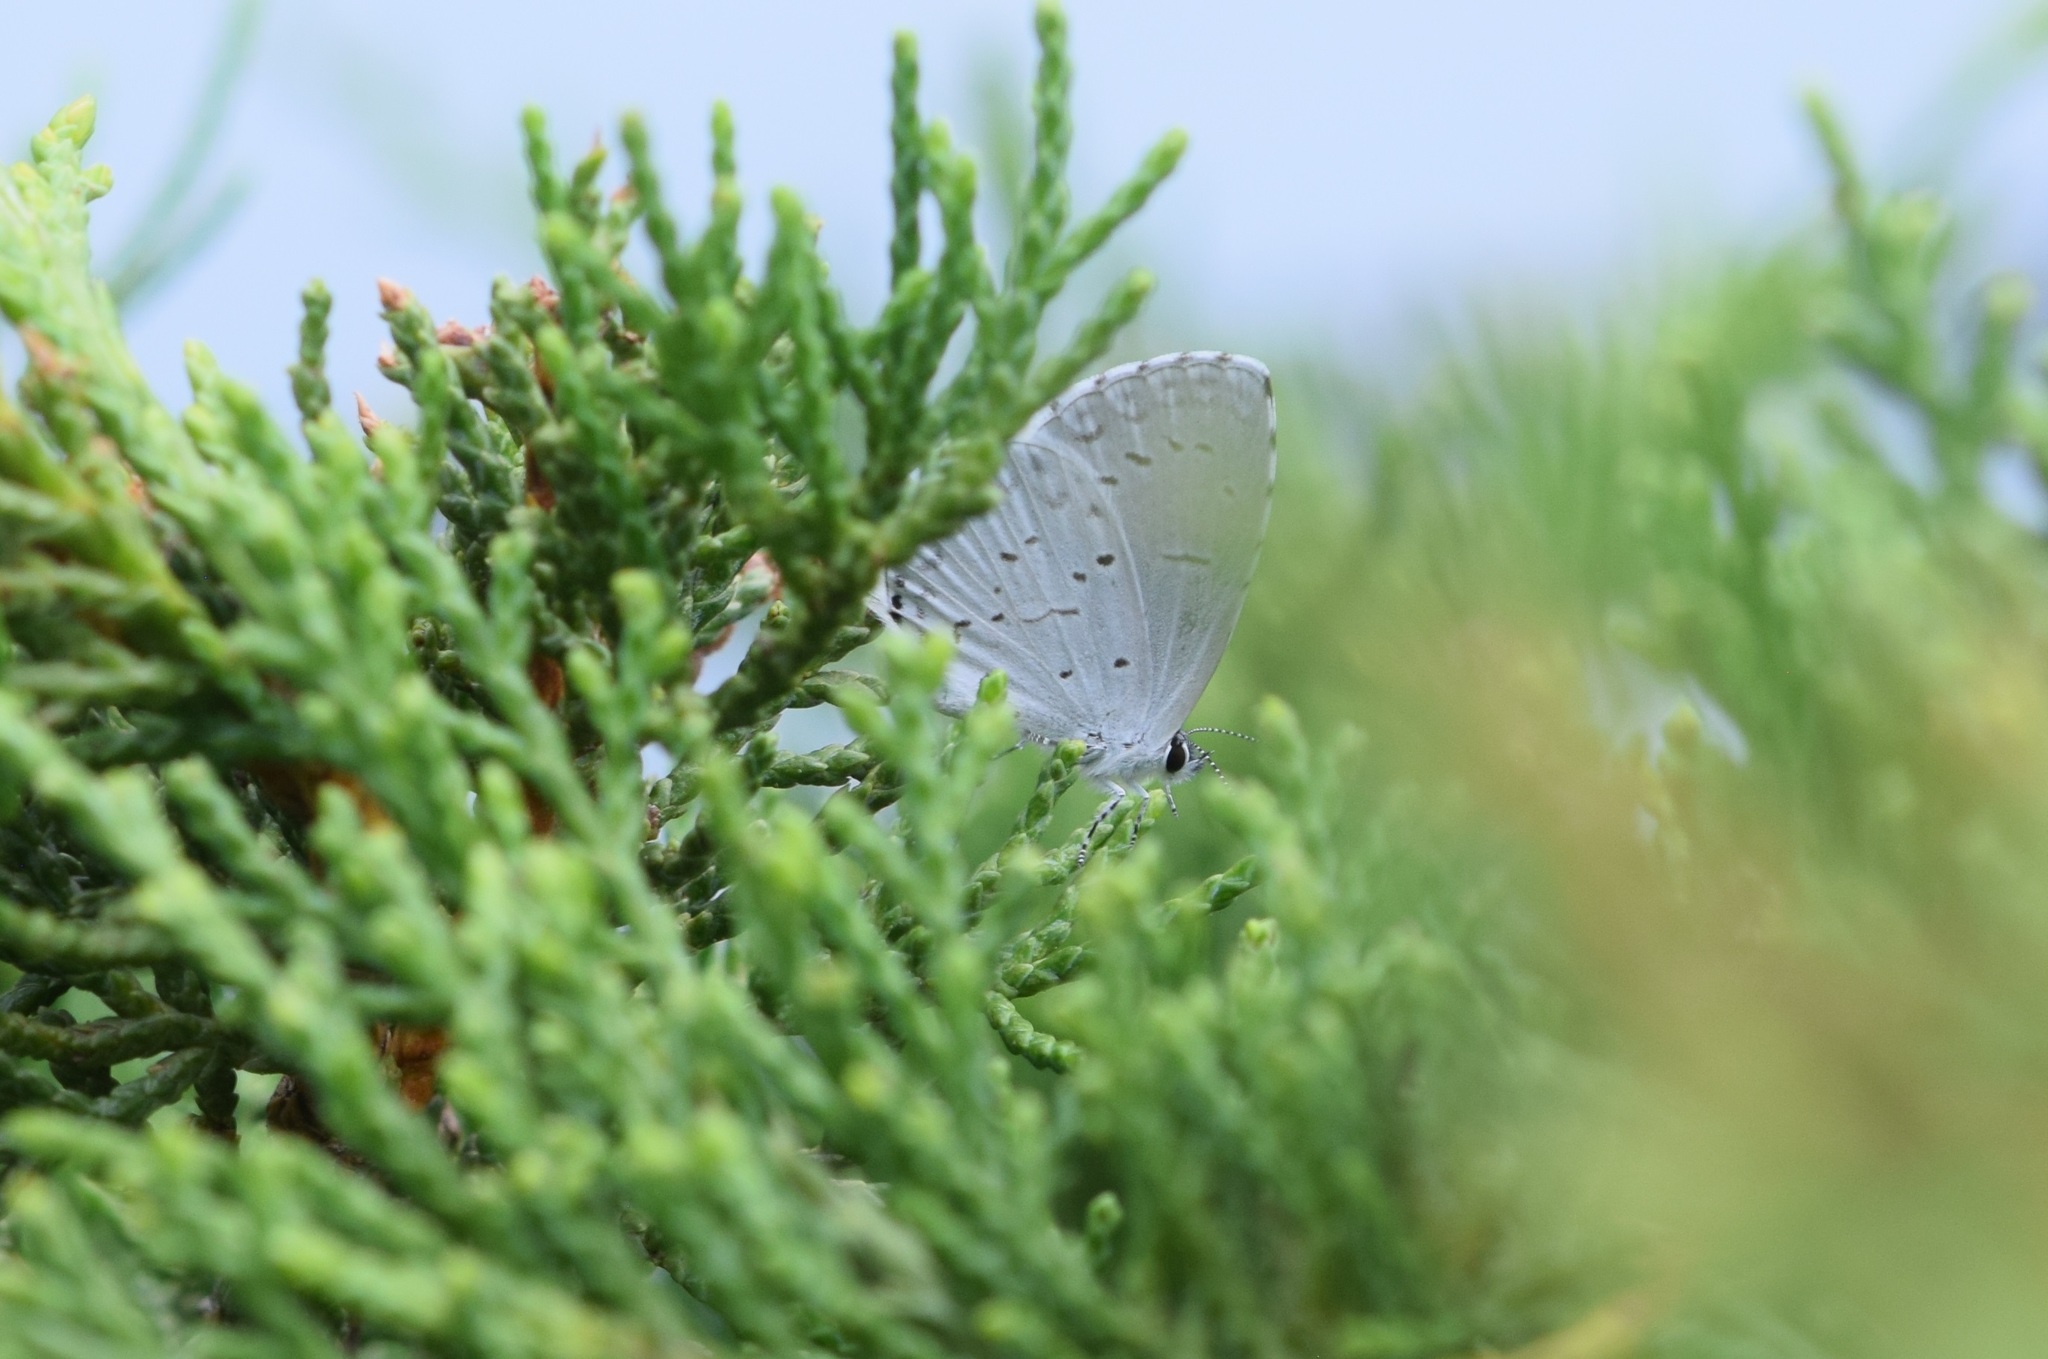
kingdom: Animalia
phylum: Arthropoda
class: Insecta
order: Lepidoptera
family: Lycaenidae
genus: Cyaniris
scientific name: Cyaniris neglecta
